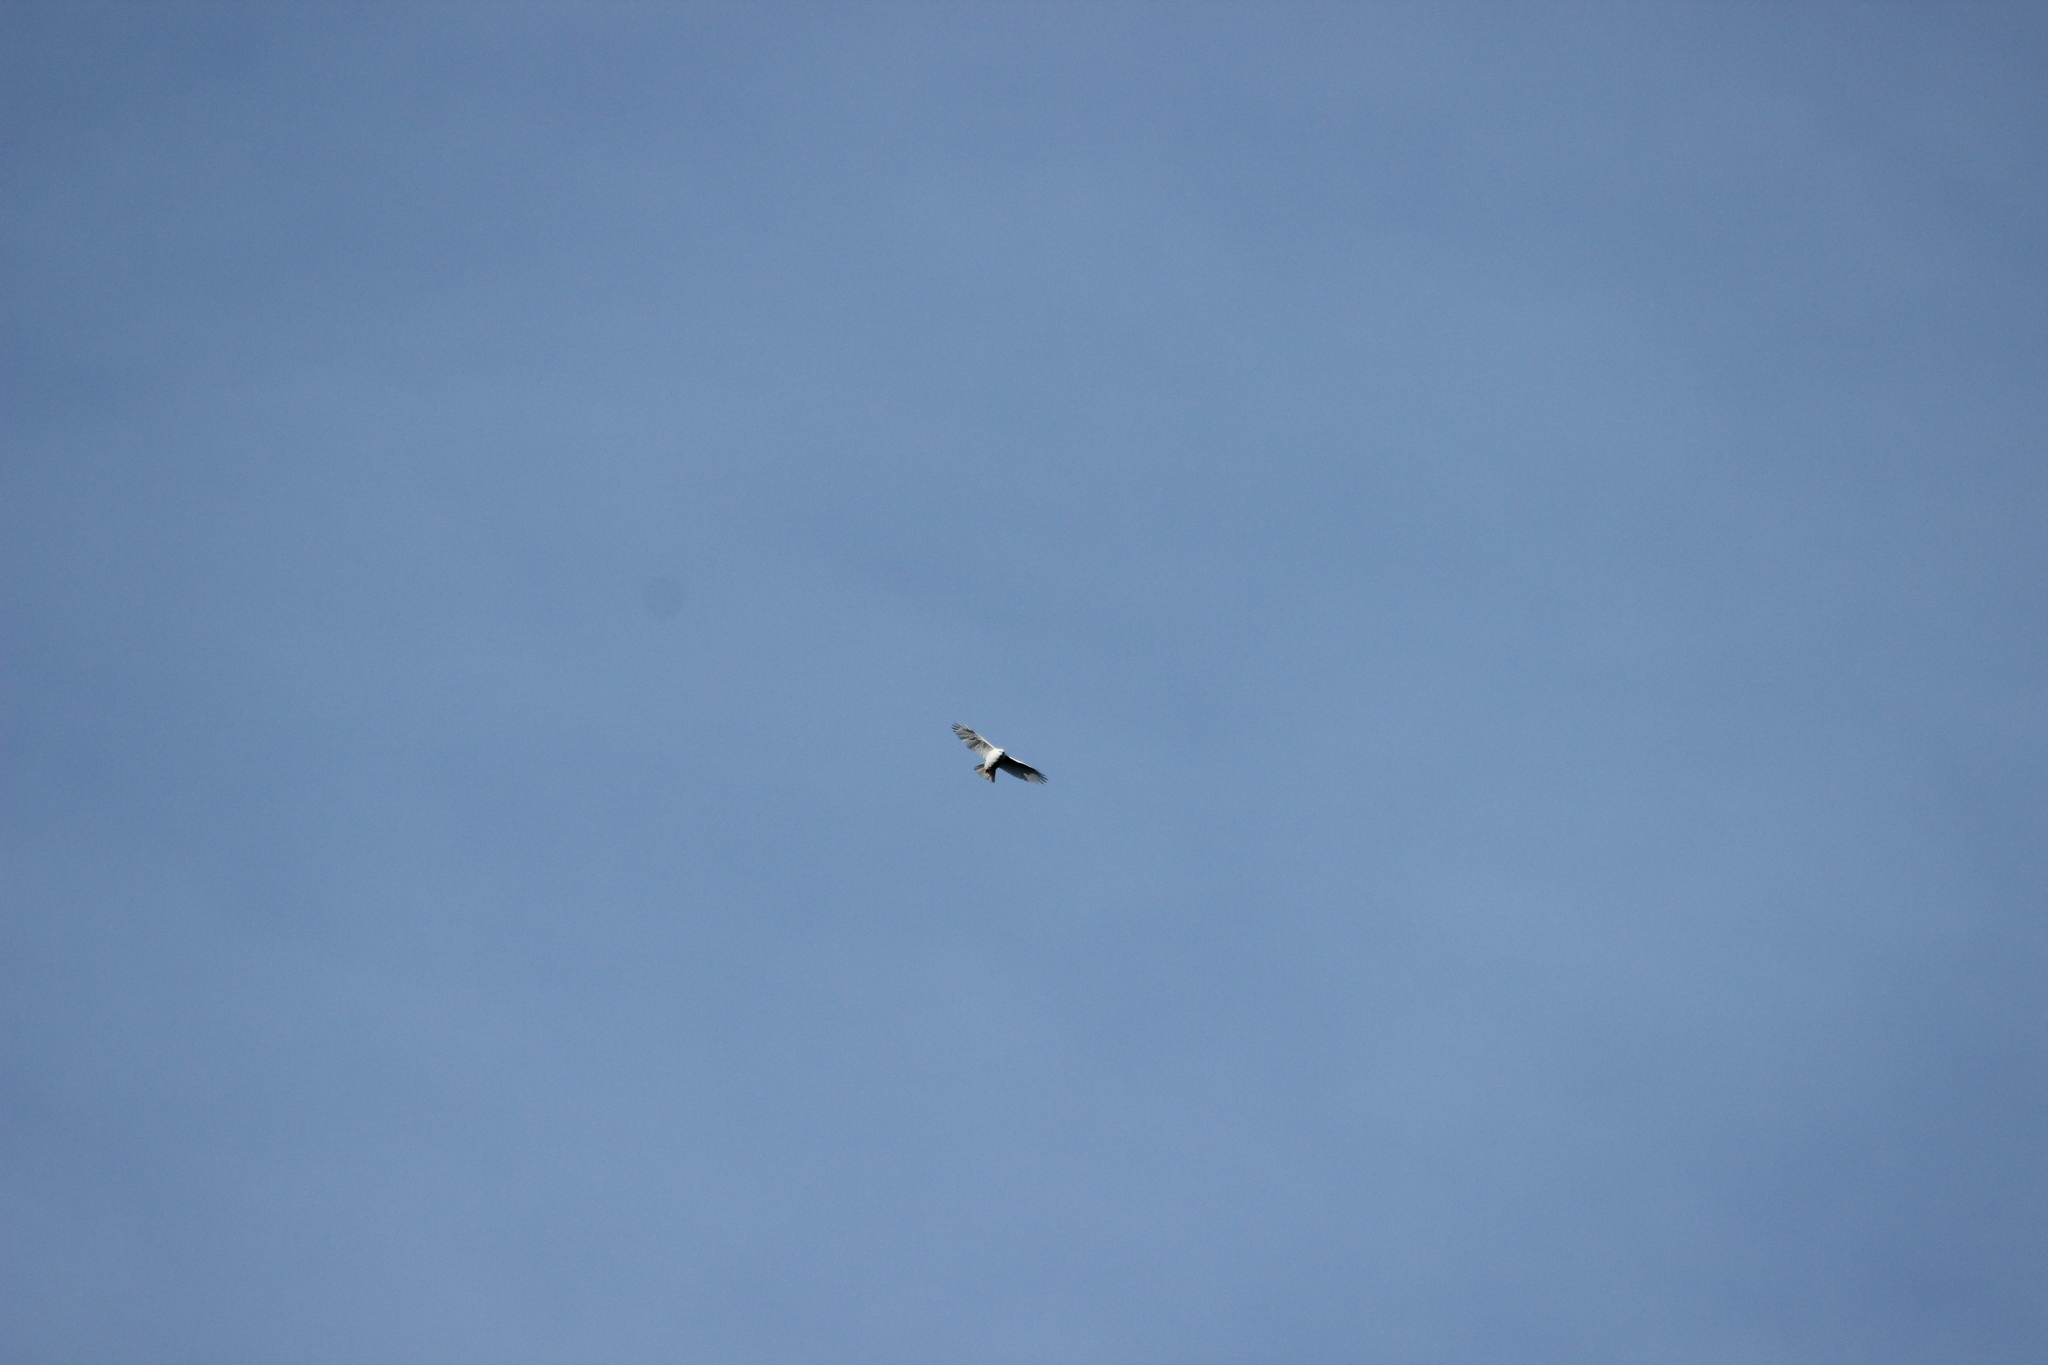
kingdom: Animalia
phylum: Chordata
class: Aves
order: Accipitriformes
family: Accipitridae
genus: Accipiter
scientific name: Accipiter novaehollandiae
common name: Grey goshawk
